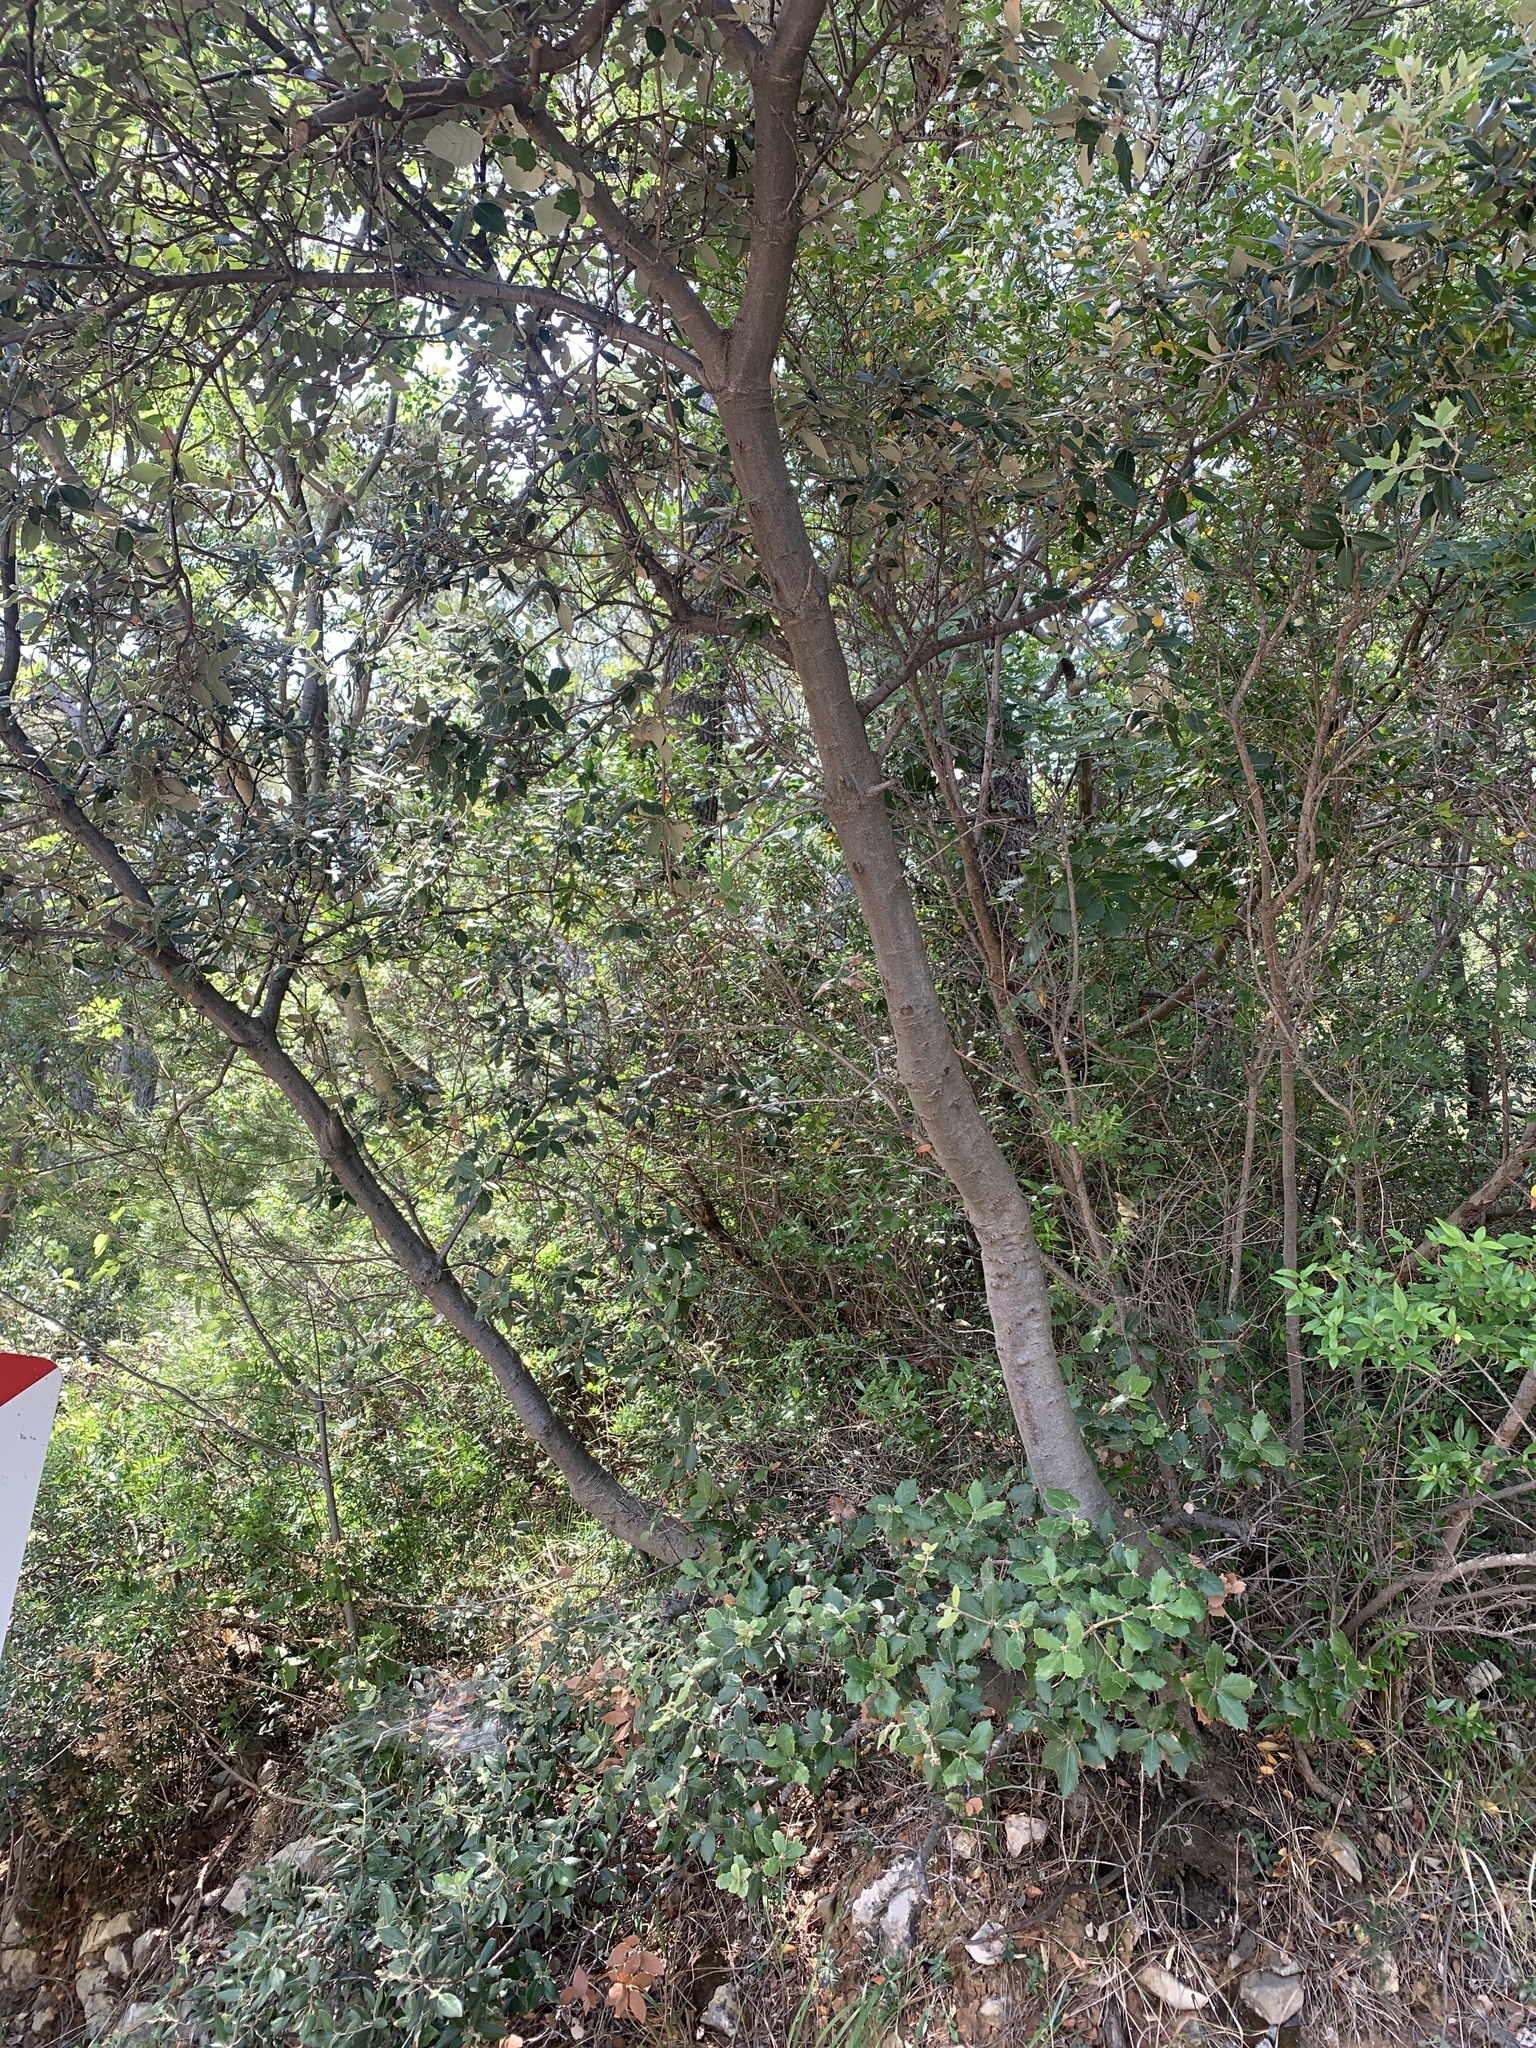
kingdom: Plantae
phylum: Tracheophyta
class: Magnoliopsida
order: Fagales
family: Fagaceae
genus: Quercus
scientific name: Quercus ilex
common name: Evergreen oak
